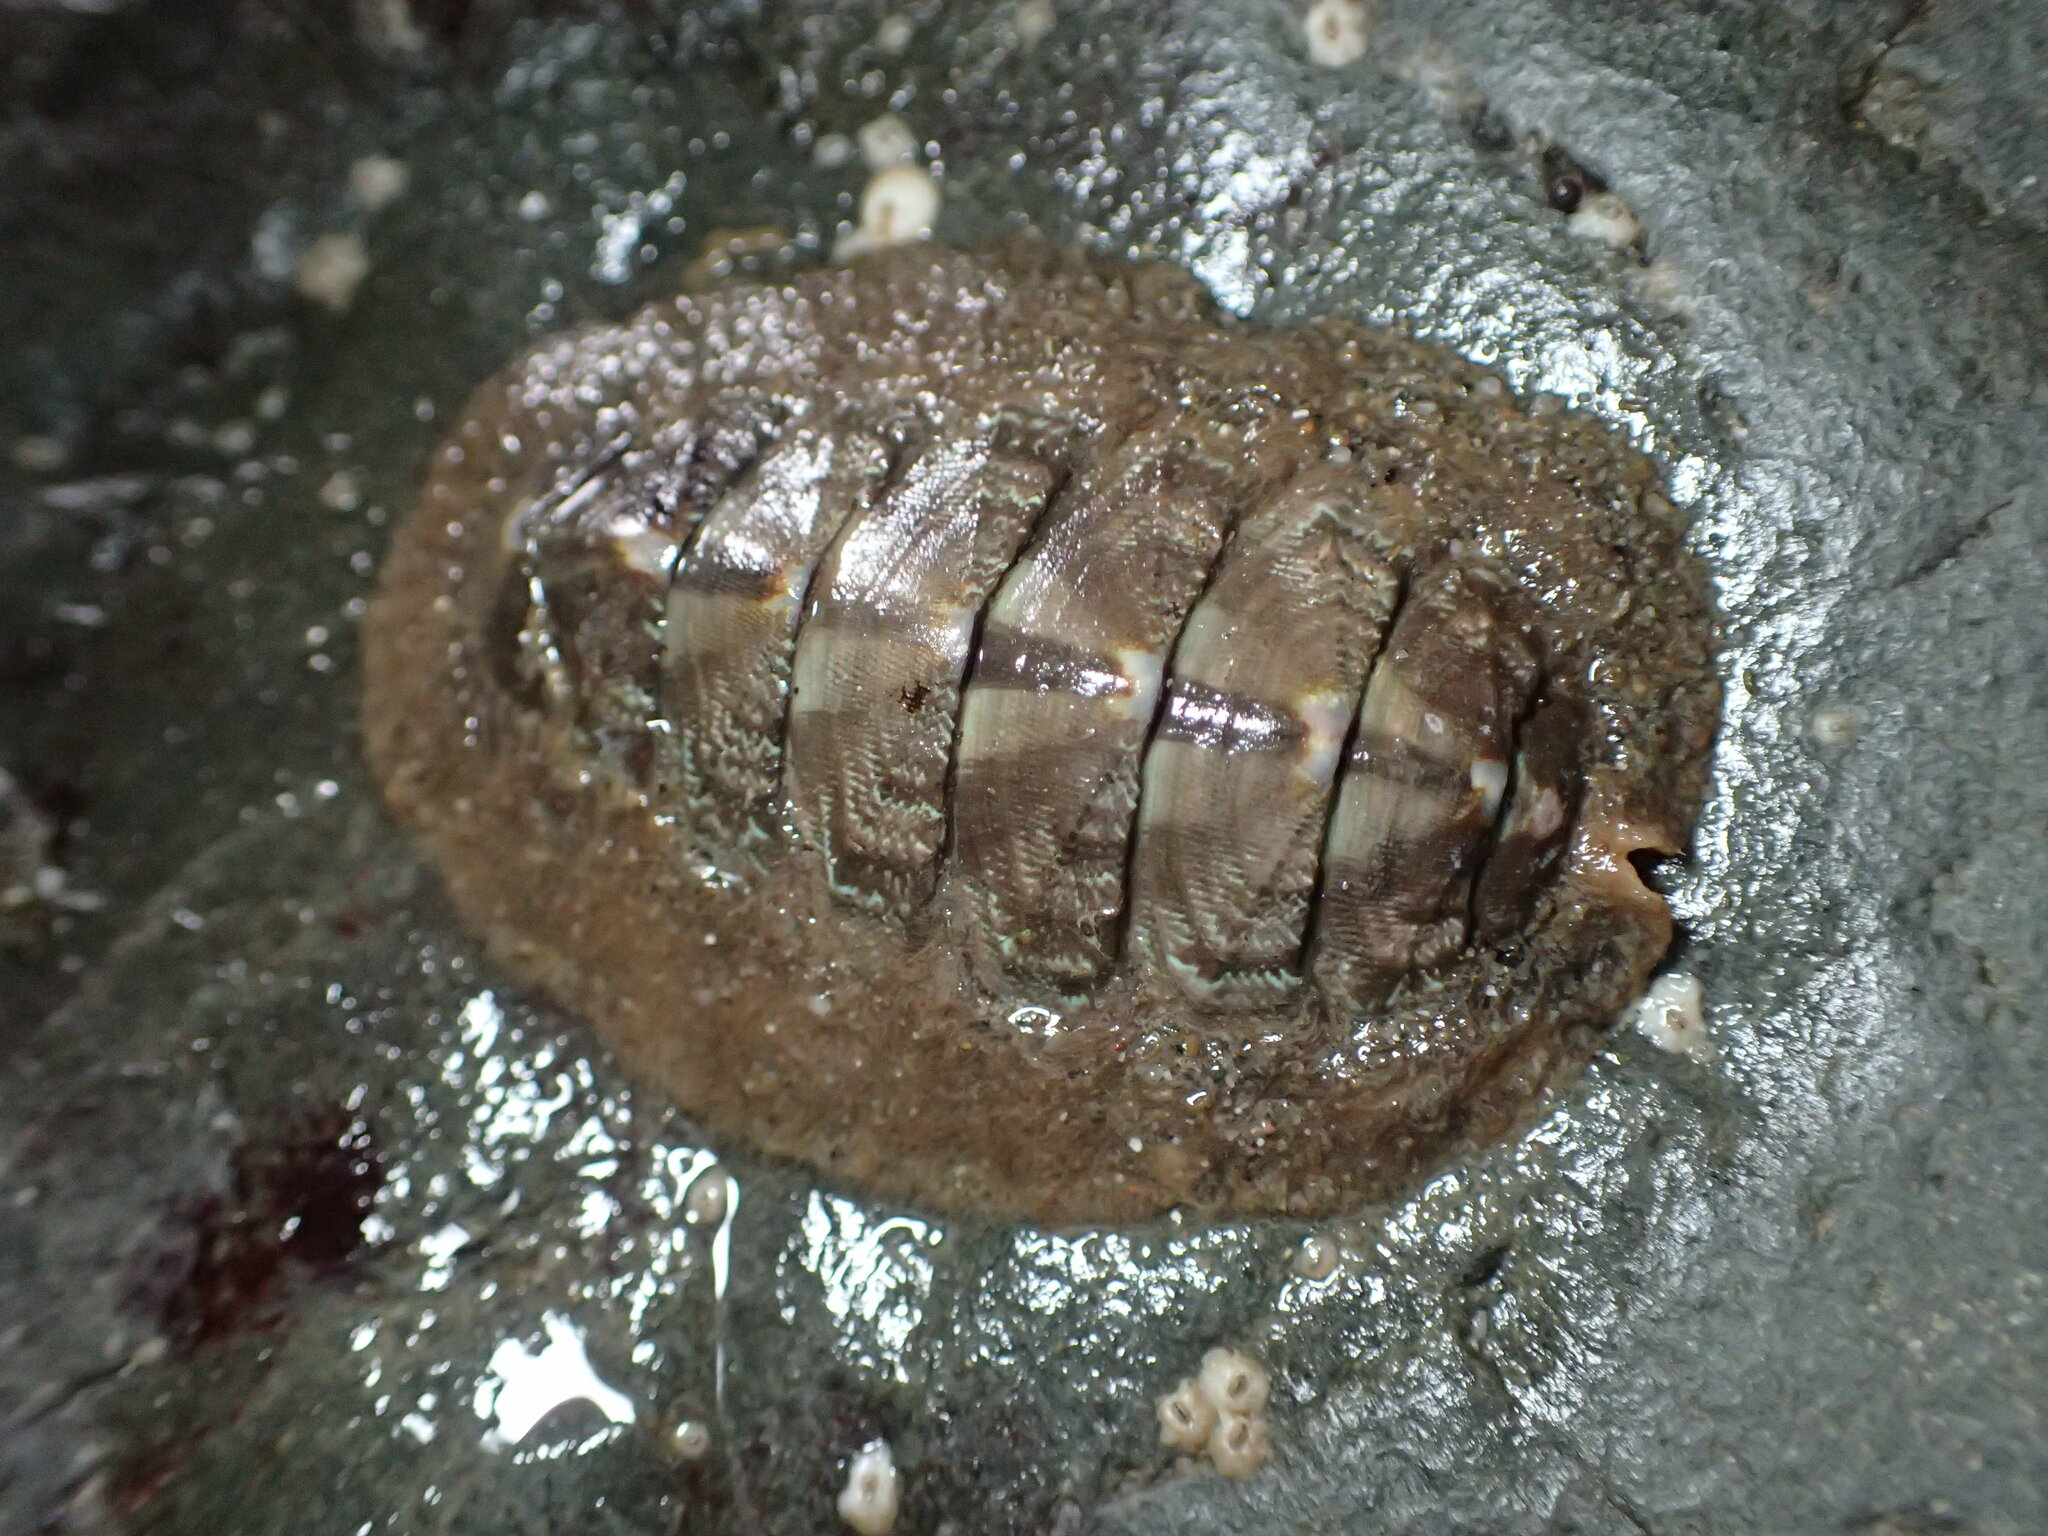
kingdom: Animalia
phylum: Mollusca
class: Polyplacophora
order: Chitonida
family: Mopaliidae
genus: Mopalia
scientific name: Mopalia hindsii
